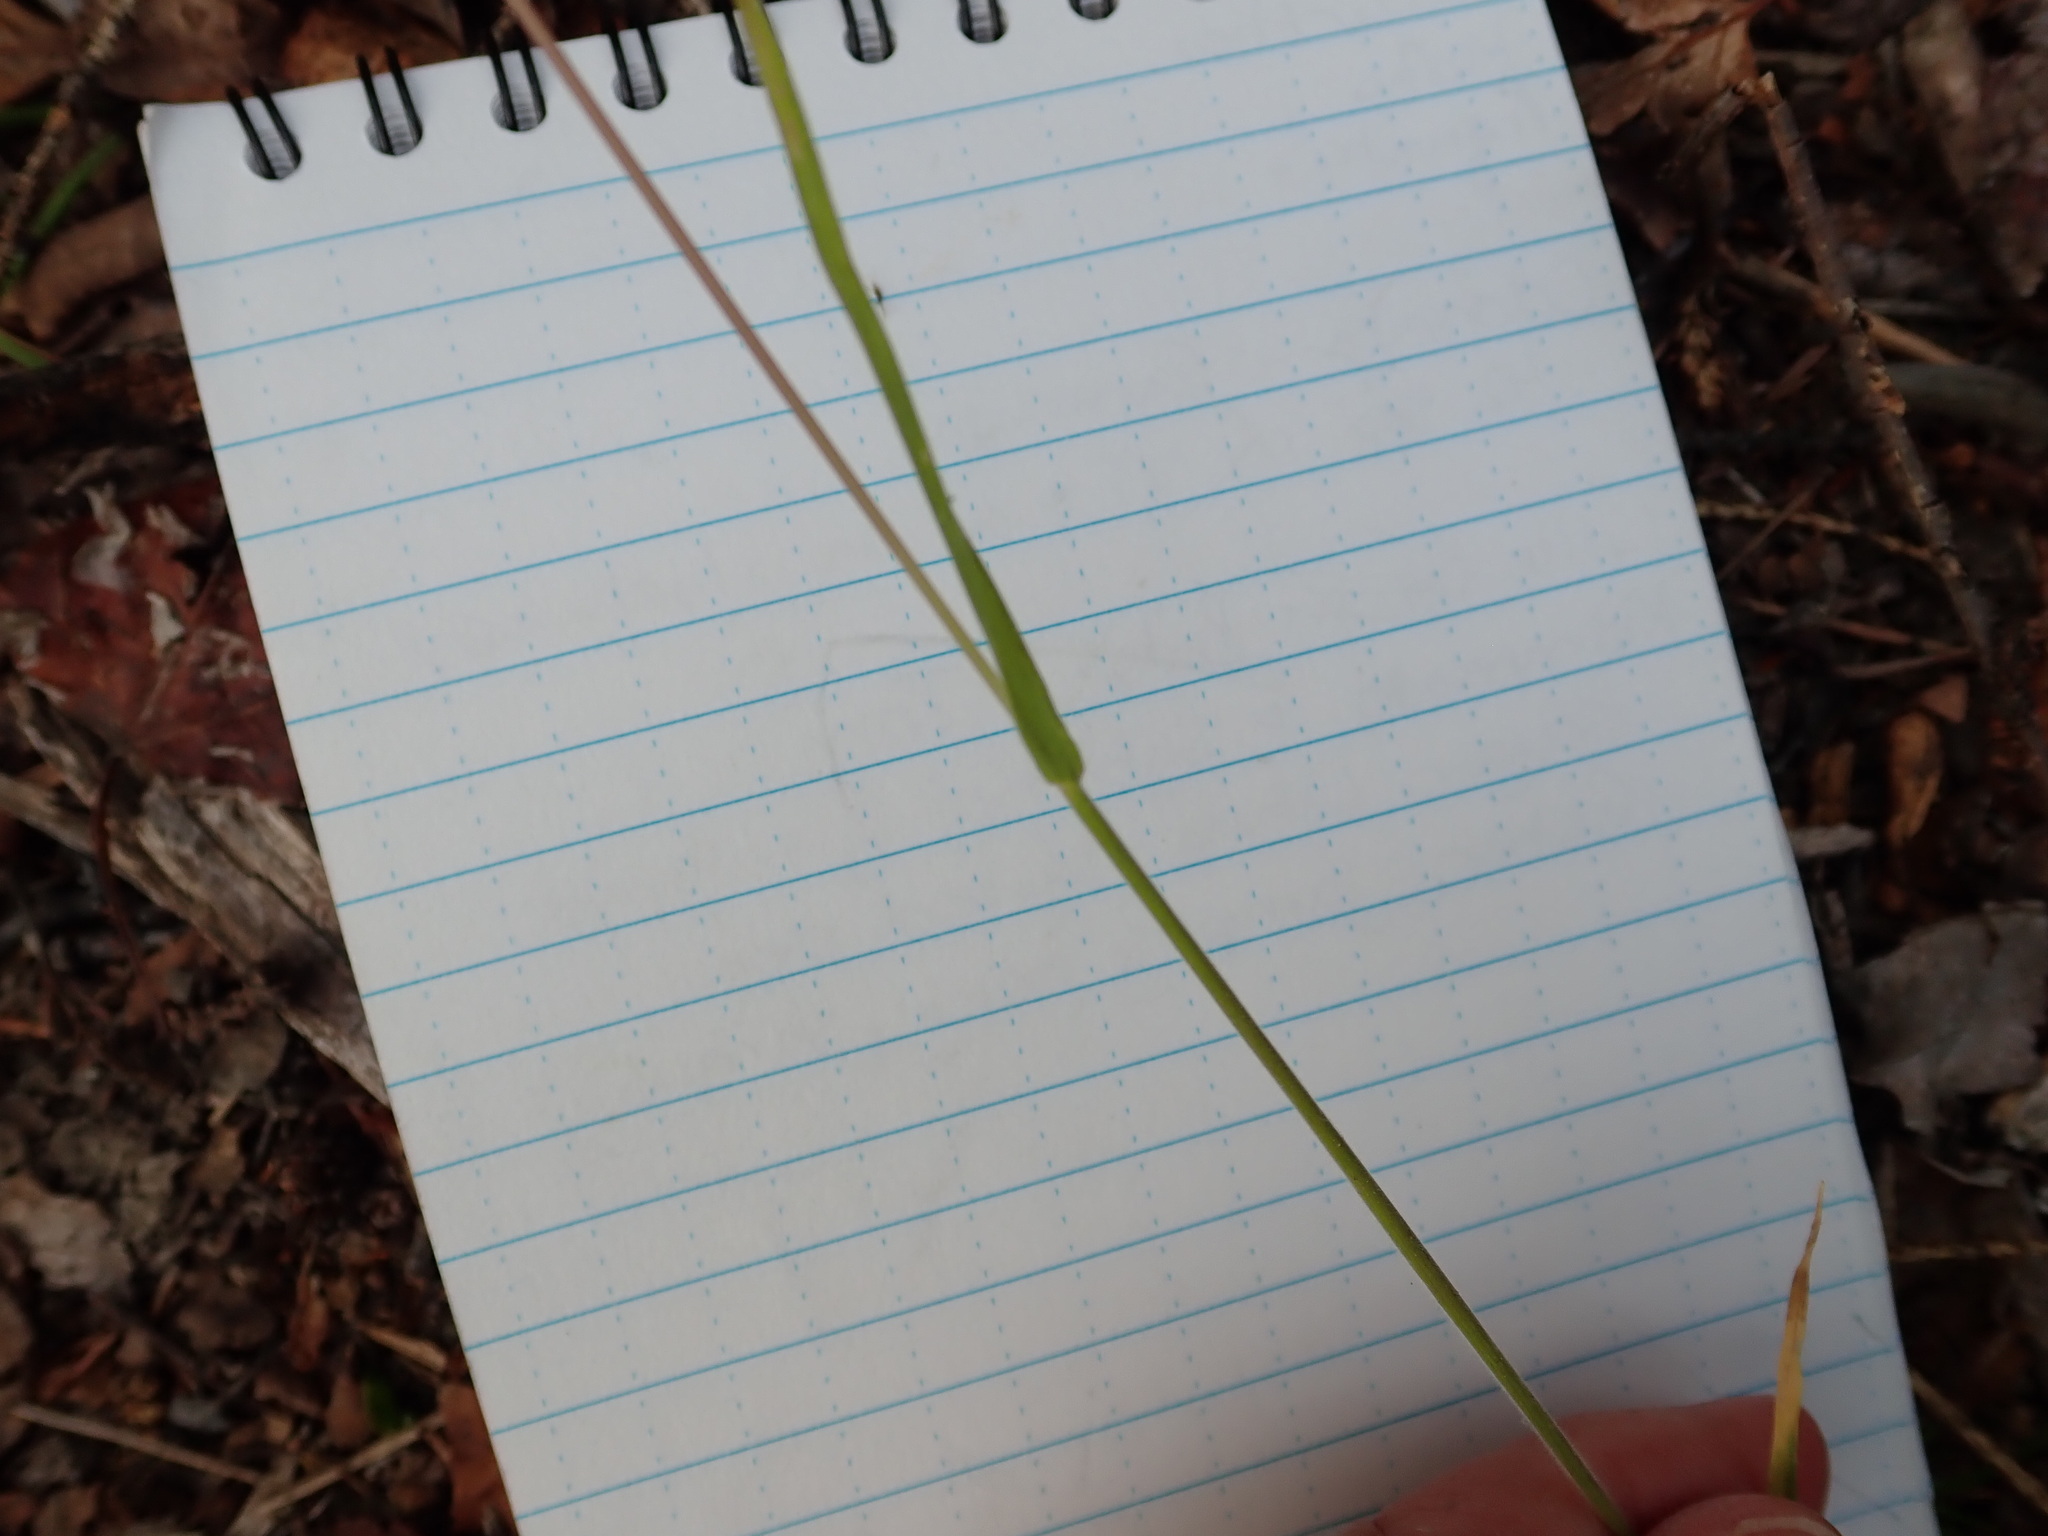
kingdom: Plantae
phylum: Tracheophyta
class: Liliopsida
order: Poales
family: Poaceae
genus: Koeleria
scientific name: Koeleria spicata
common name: Mountain trisetum
